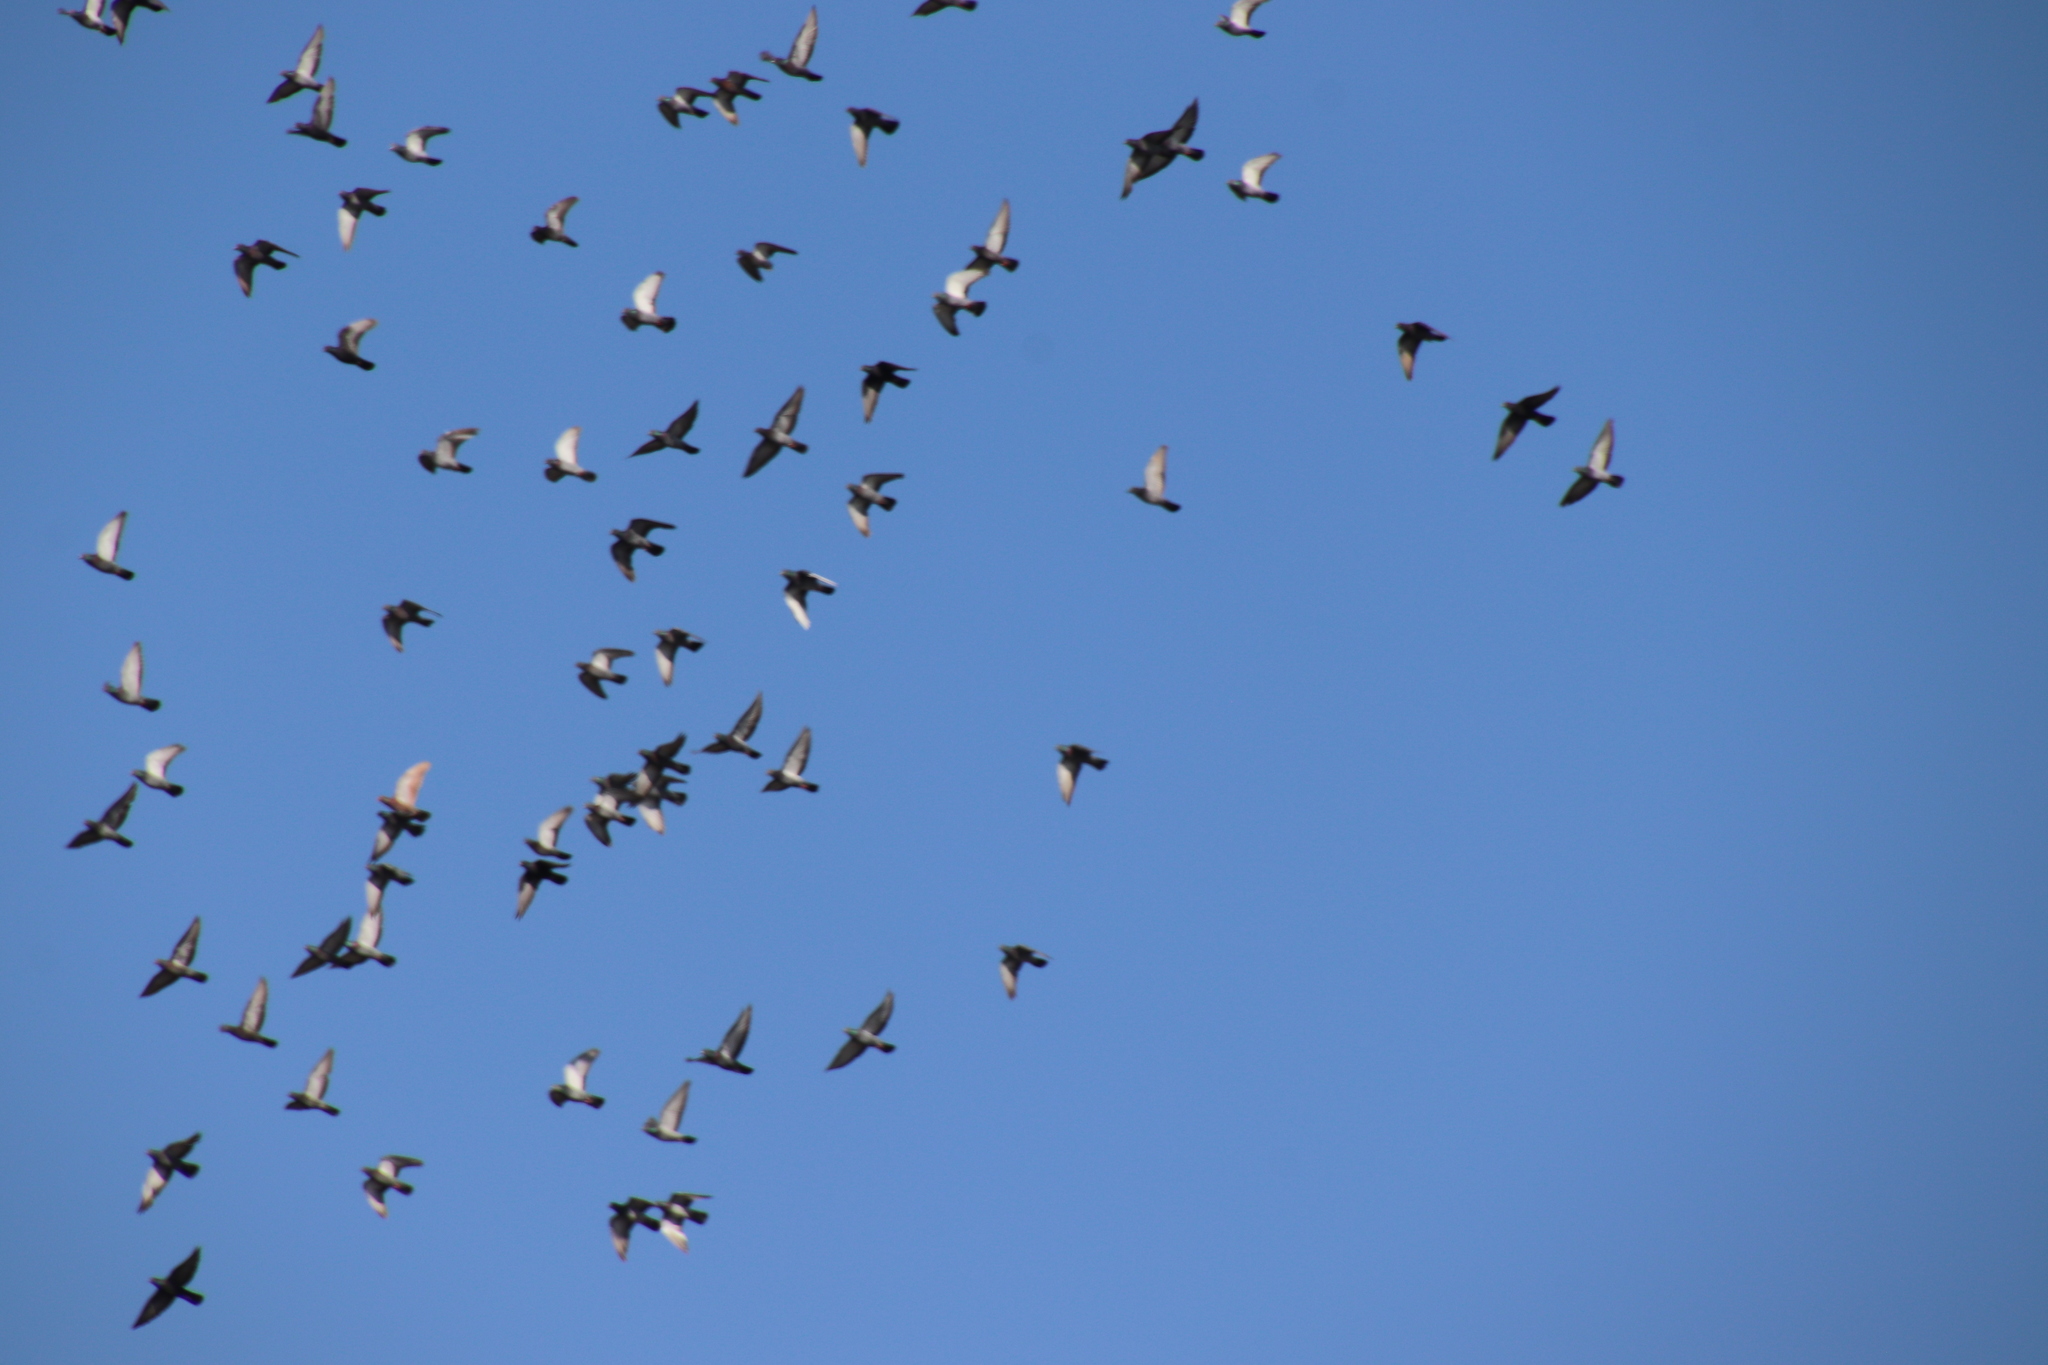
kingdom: Animalia
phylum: Chordata
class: Aves
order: Columbiformes
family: Columbidae
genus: Columba
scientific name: Columba livia
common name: Rock pigeon
